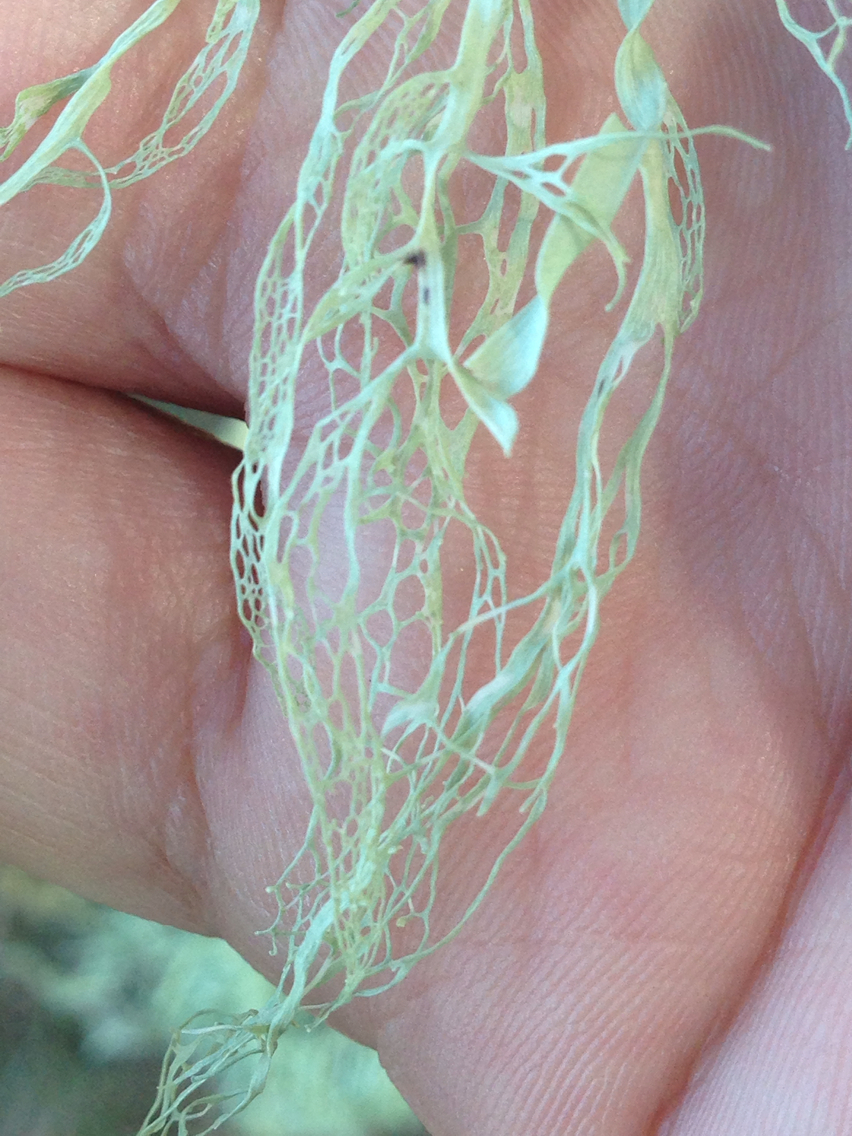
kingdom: Fungi
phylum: Ascomycota
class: Lecanoromycetes
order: Lecanorales
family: Ramalinaceae
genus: Ramalina
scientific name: Ramalina menziesii
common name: Lace lichen
